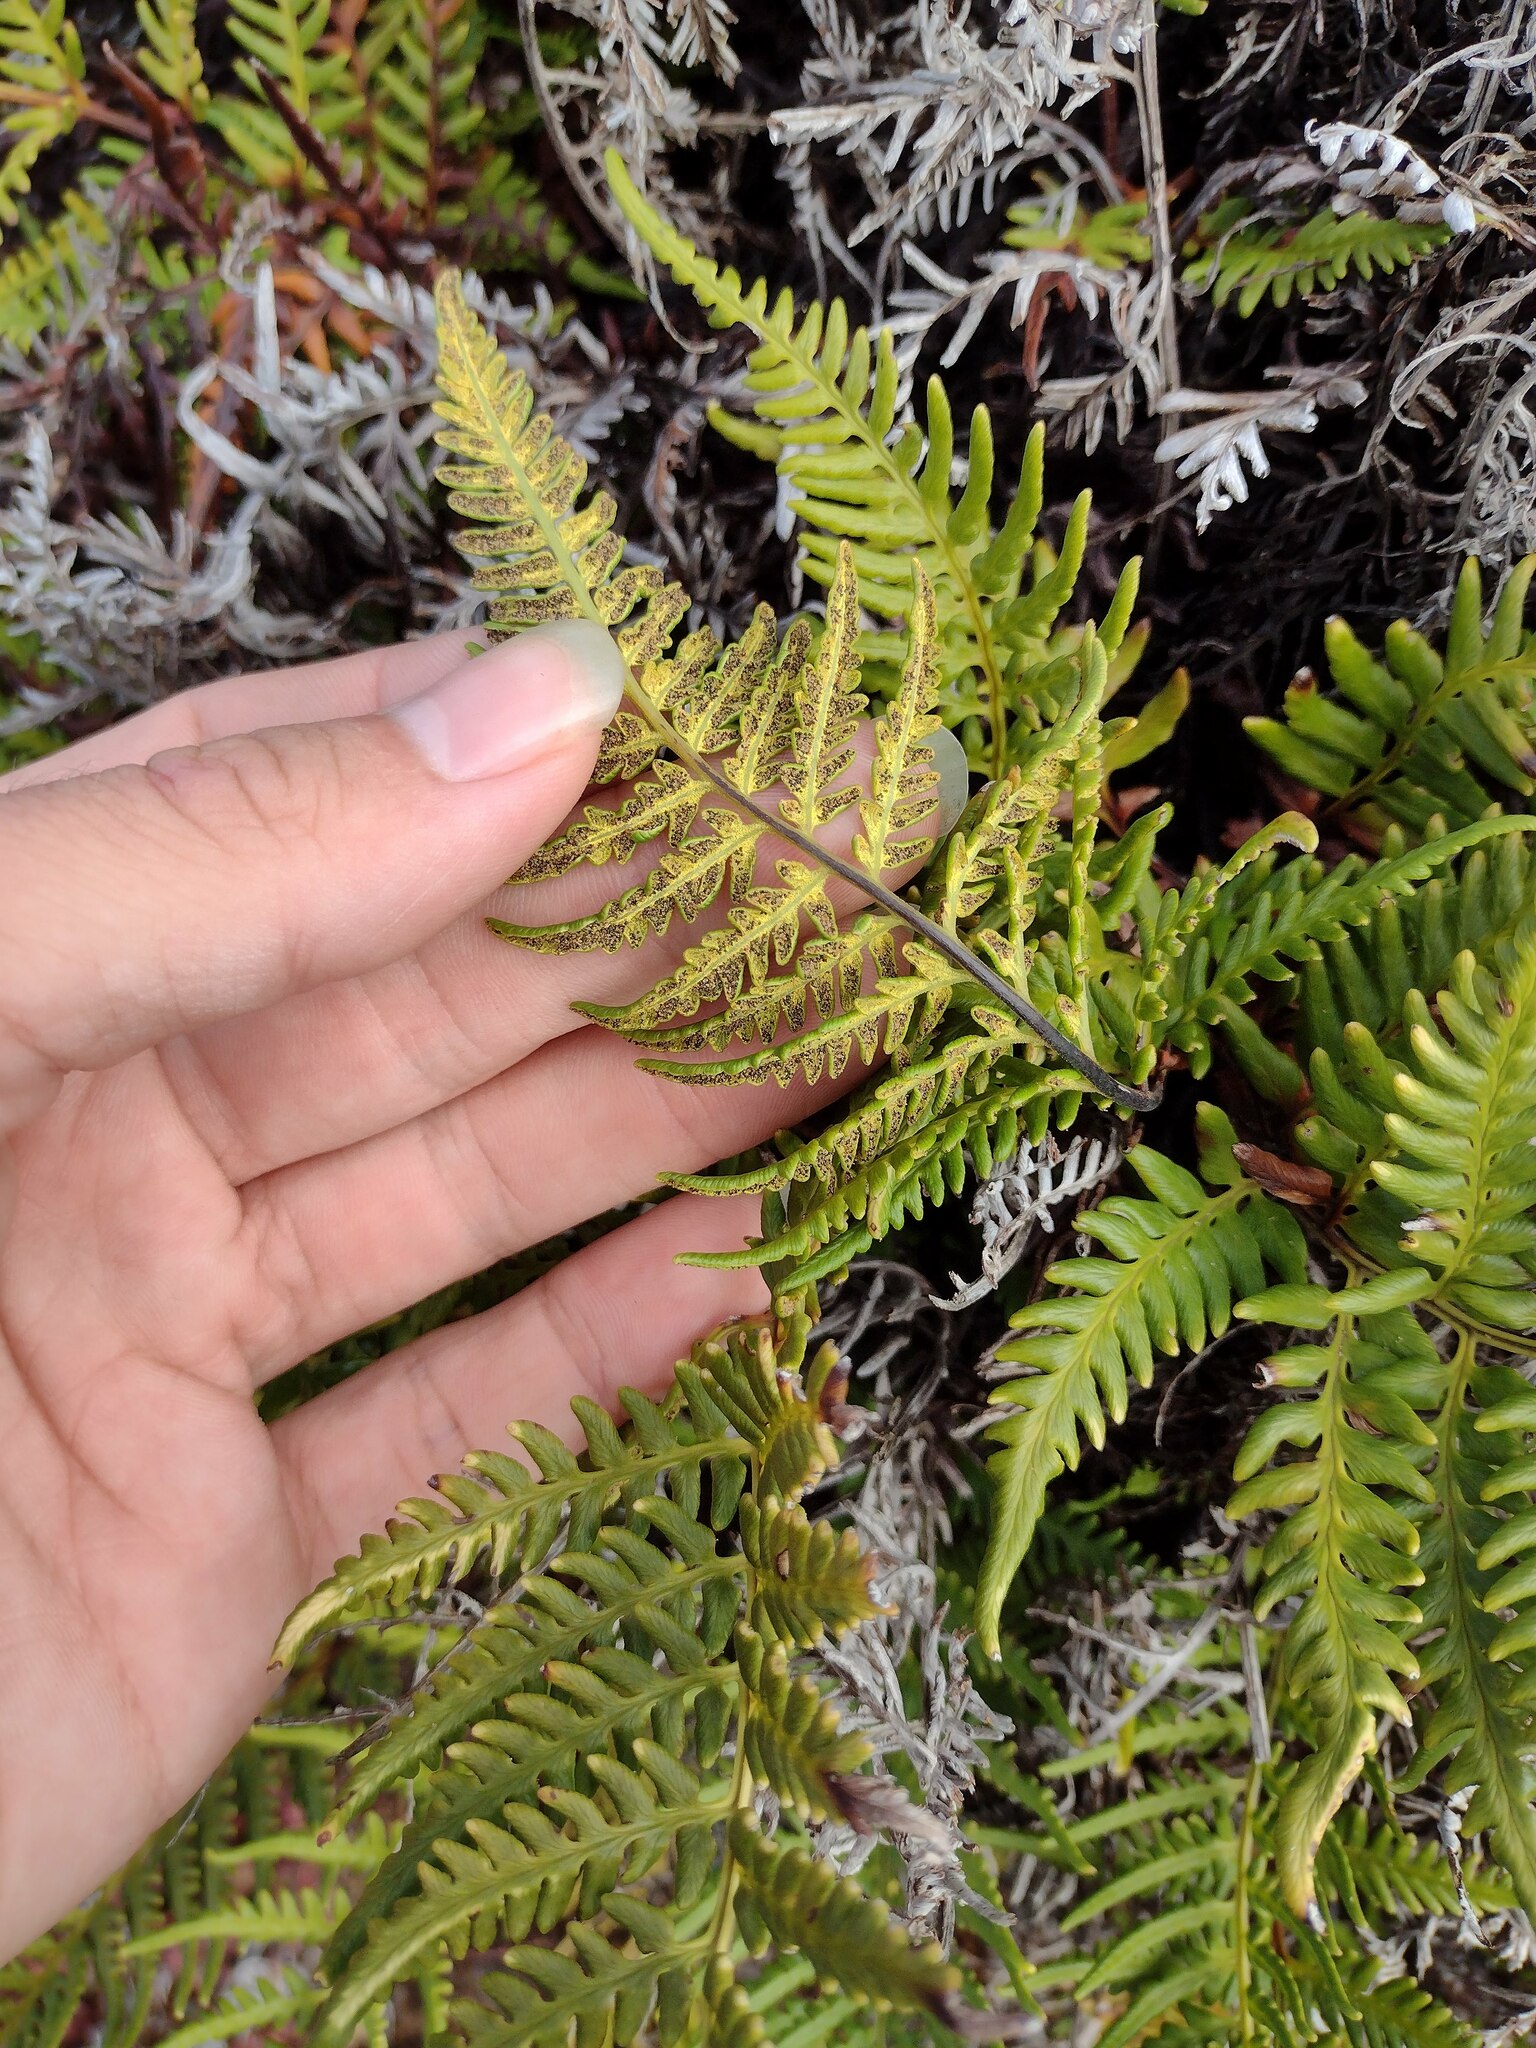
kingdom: Plantae
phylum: Tracheophyta
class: Polypodiopsida
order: Polypodiales
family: Pteridaceae
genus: Pityrogramma
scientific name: Pityrogramma austroamericana
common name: Leatherleaf goldback fern
